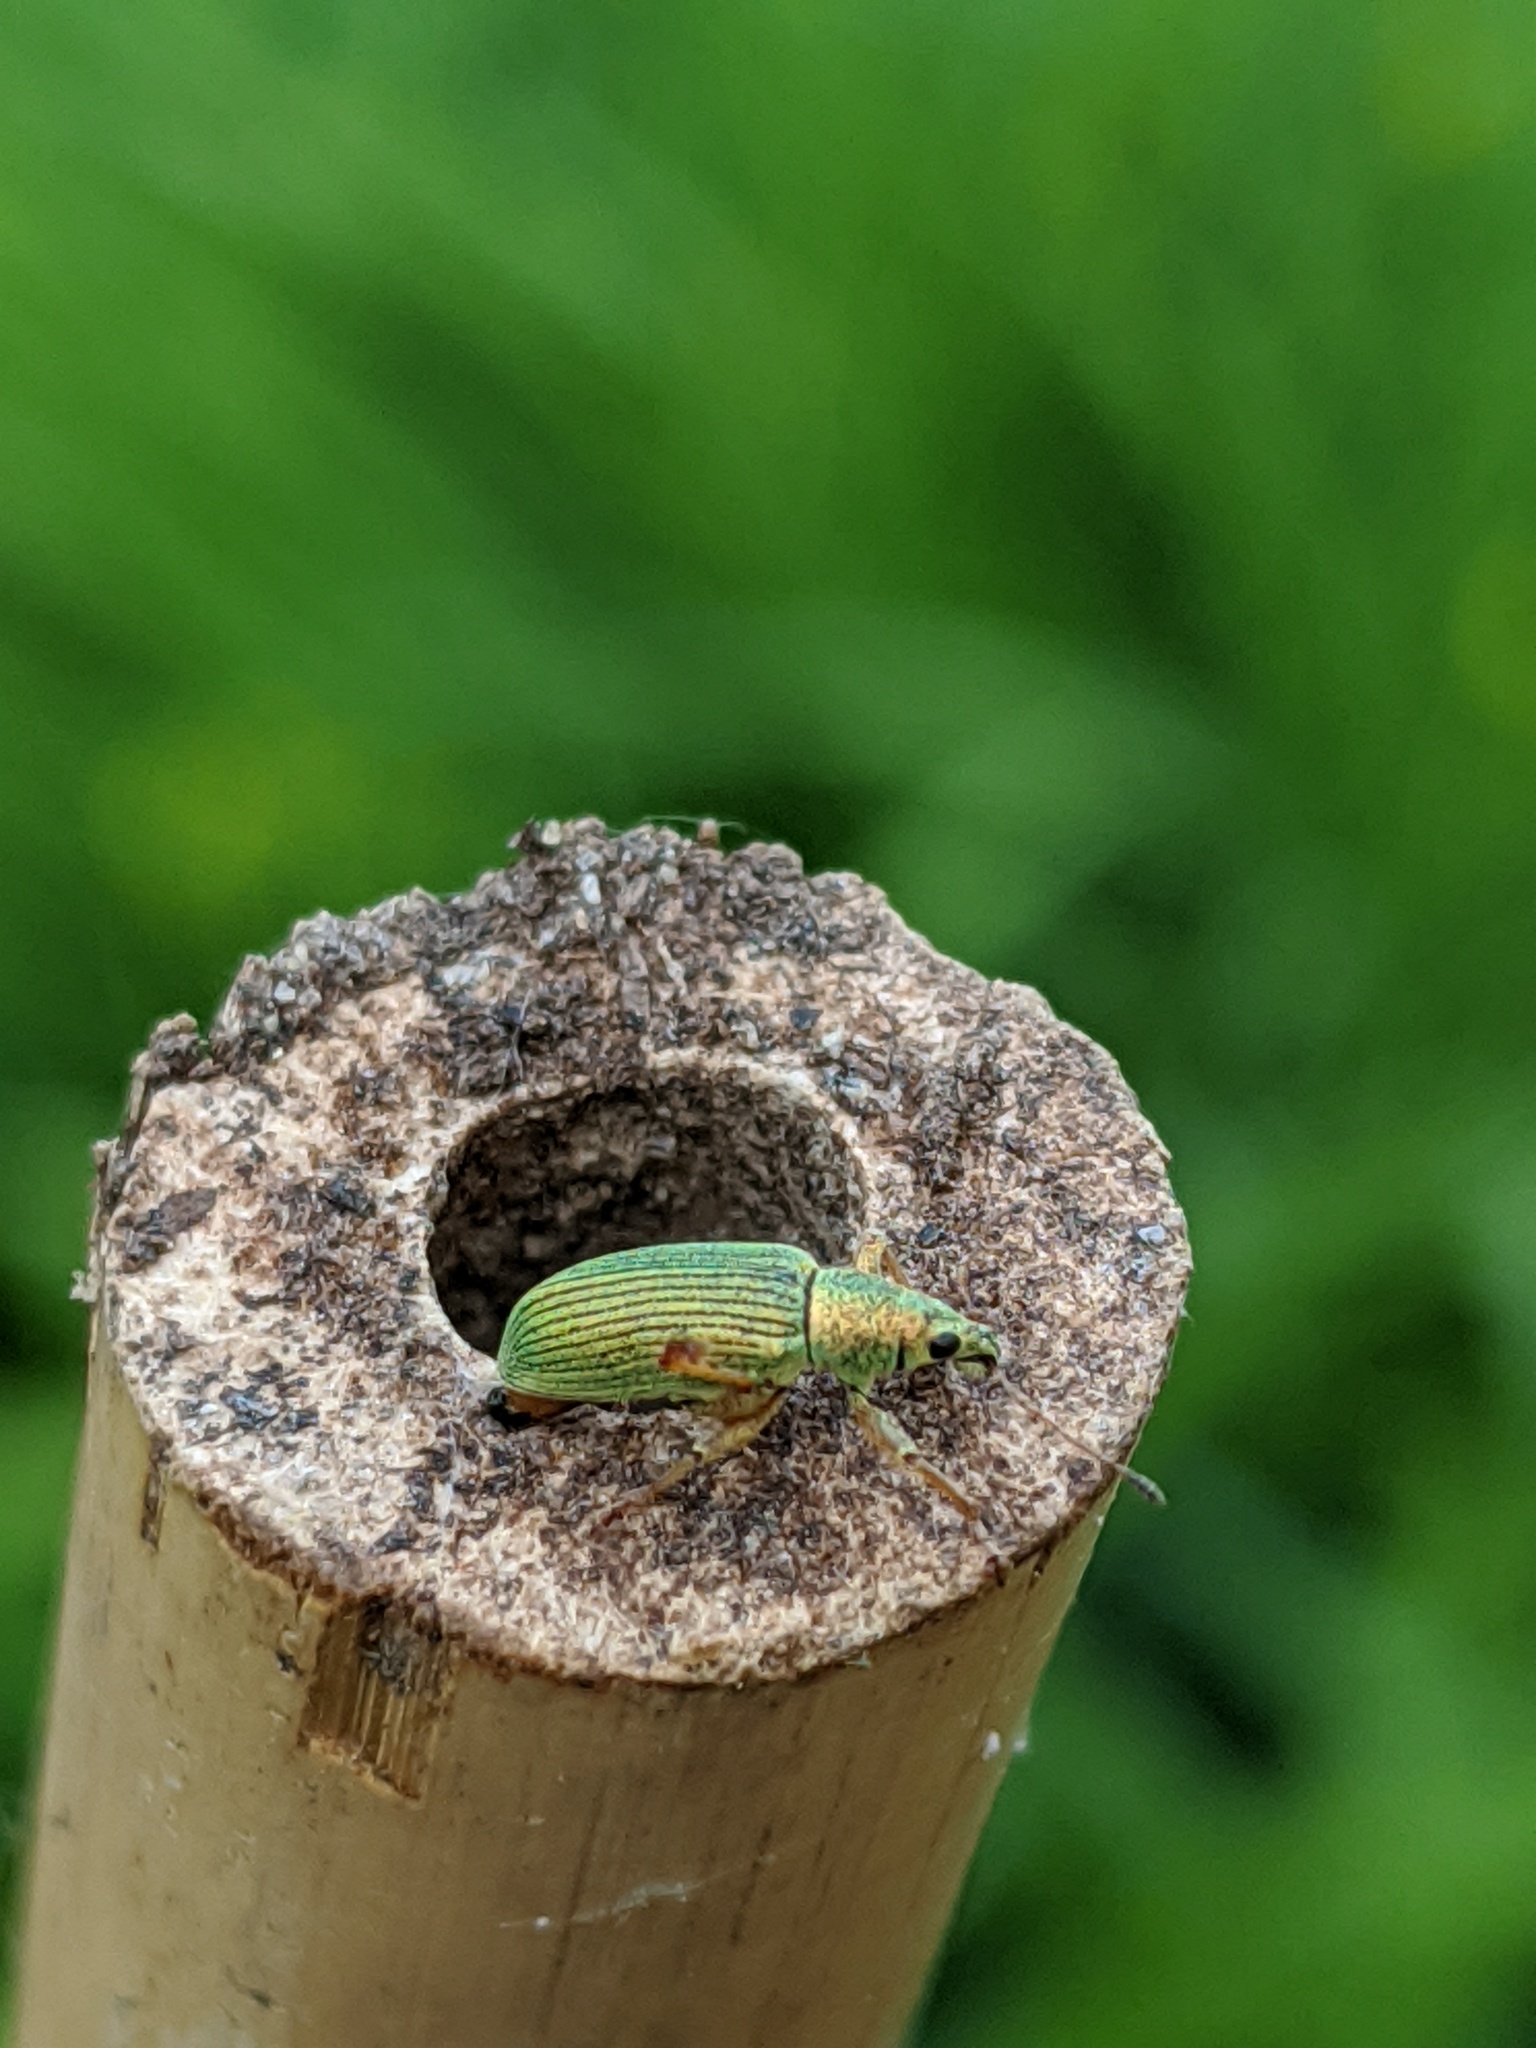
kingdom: Animalia
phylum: Arthropoda
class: Insecta
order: Coleoptera
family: Curculionidae
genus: Polydrusus
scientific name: Polydrusus formosus
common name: Weevil
